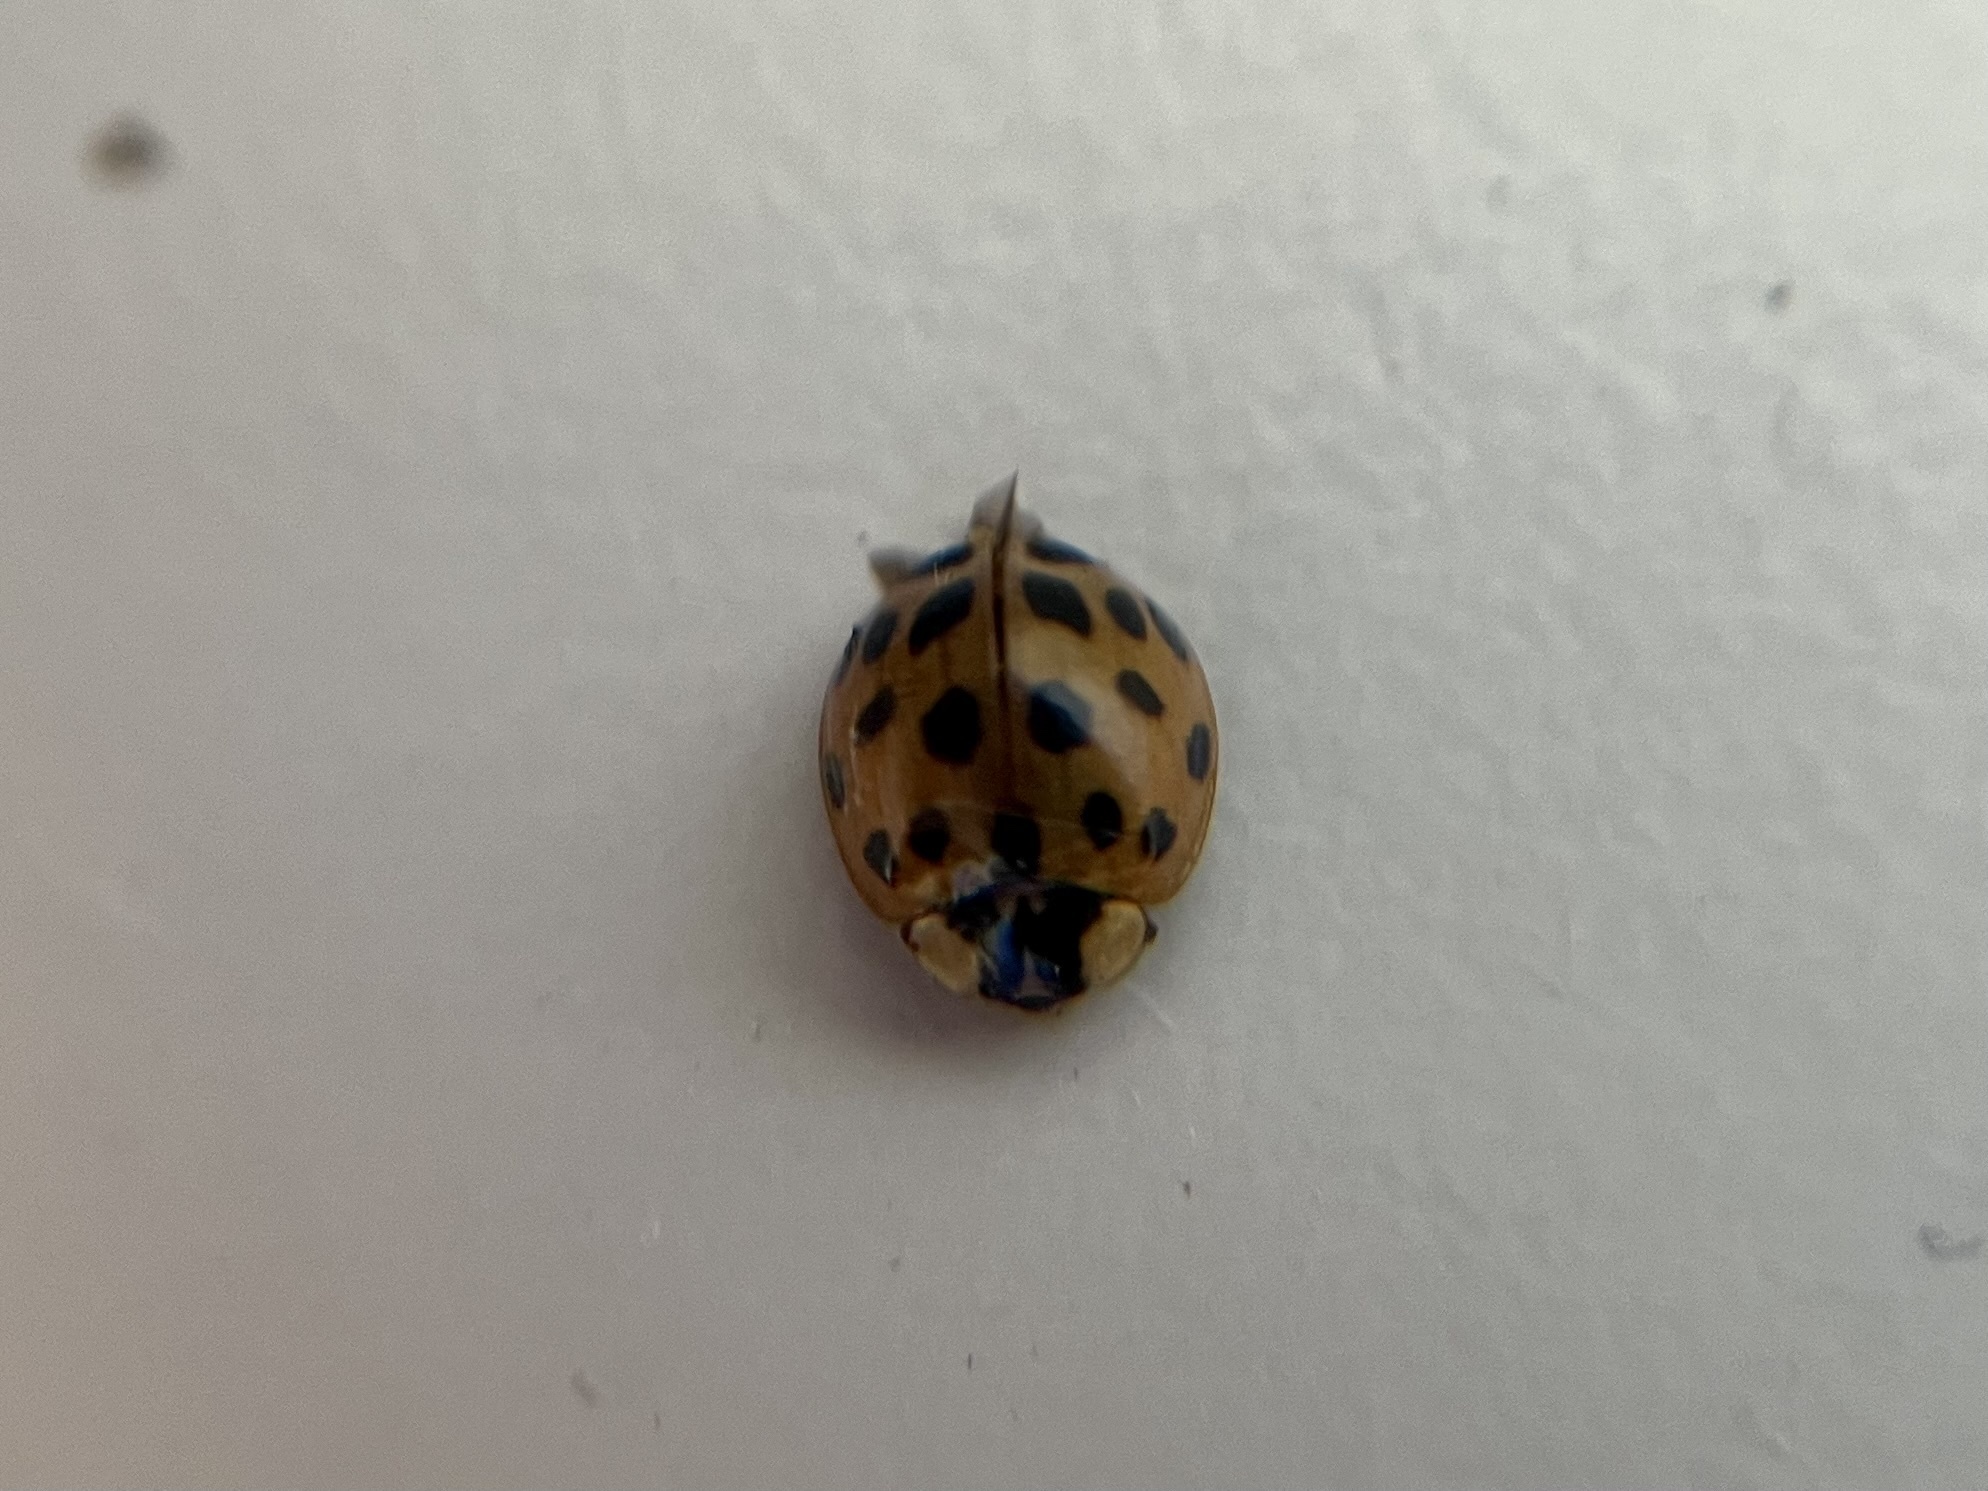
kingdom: Animalia
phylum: Arthropoda
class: Insecta
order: Coleoptera
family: Coccinellidae
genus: Harmonia
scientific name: Harmonia axyridis
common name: Harlequin ladybird
